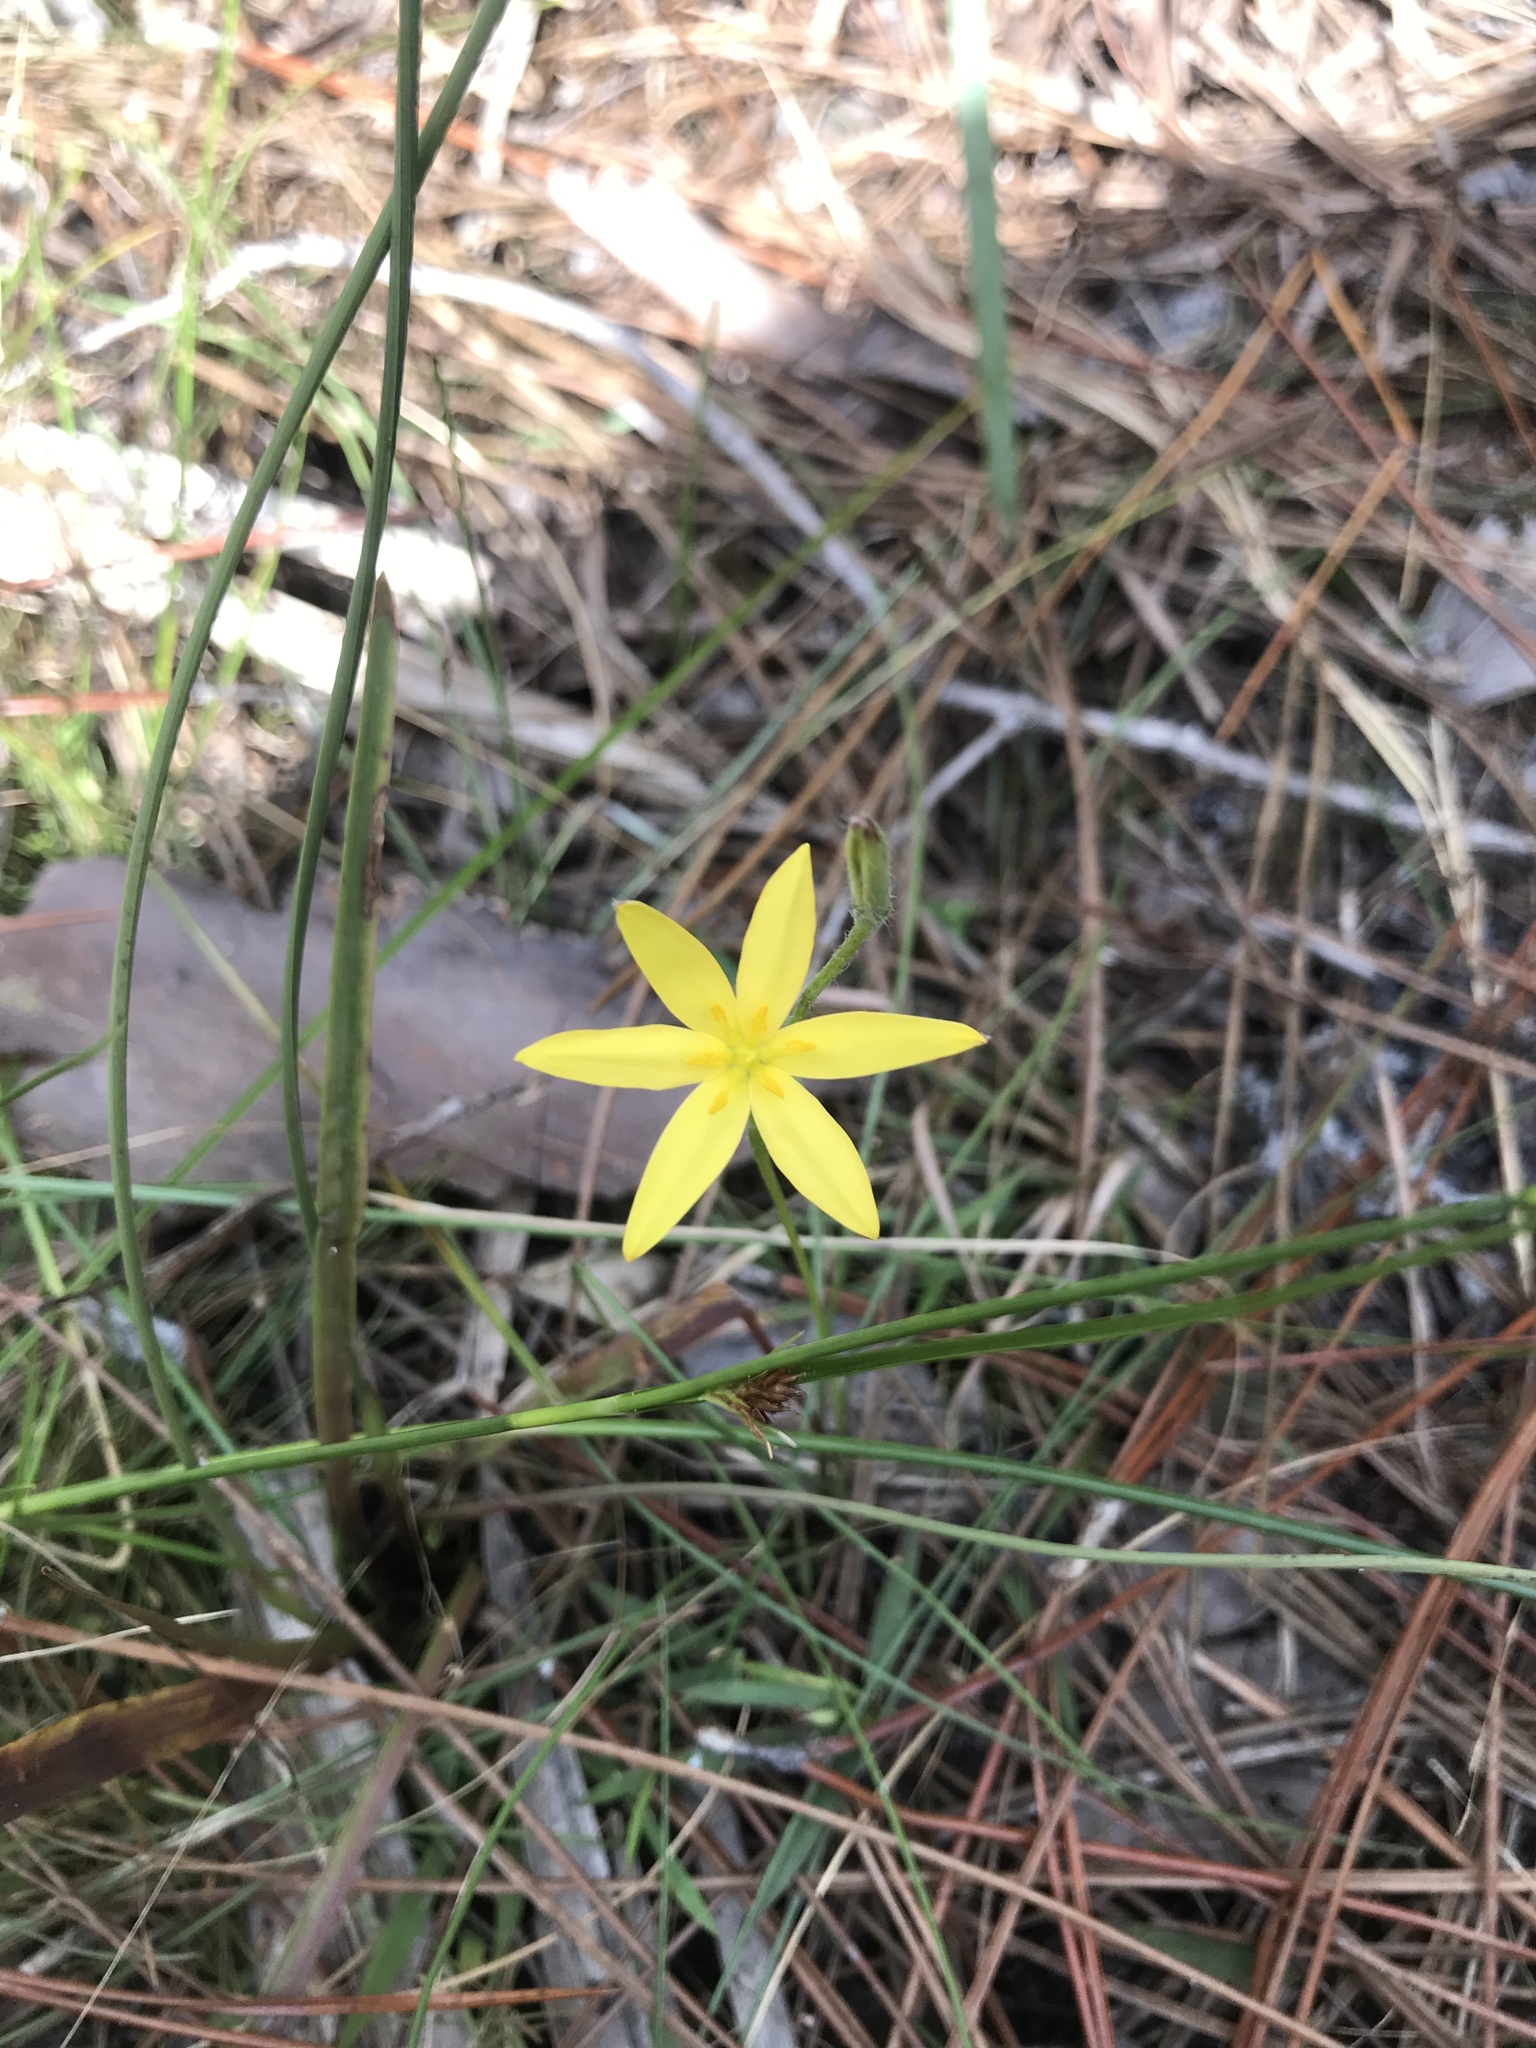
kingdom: Plantae
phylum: Tracheophyta
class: Liliopsida
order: Asparagales
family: Hypoxidaceae
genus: Hypoxis
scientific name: Hypoxis juncea
